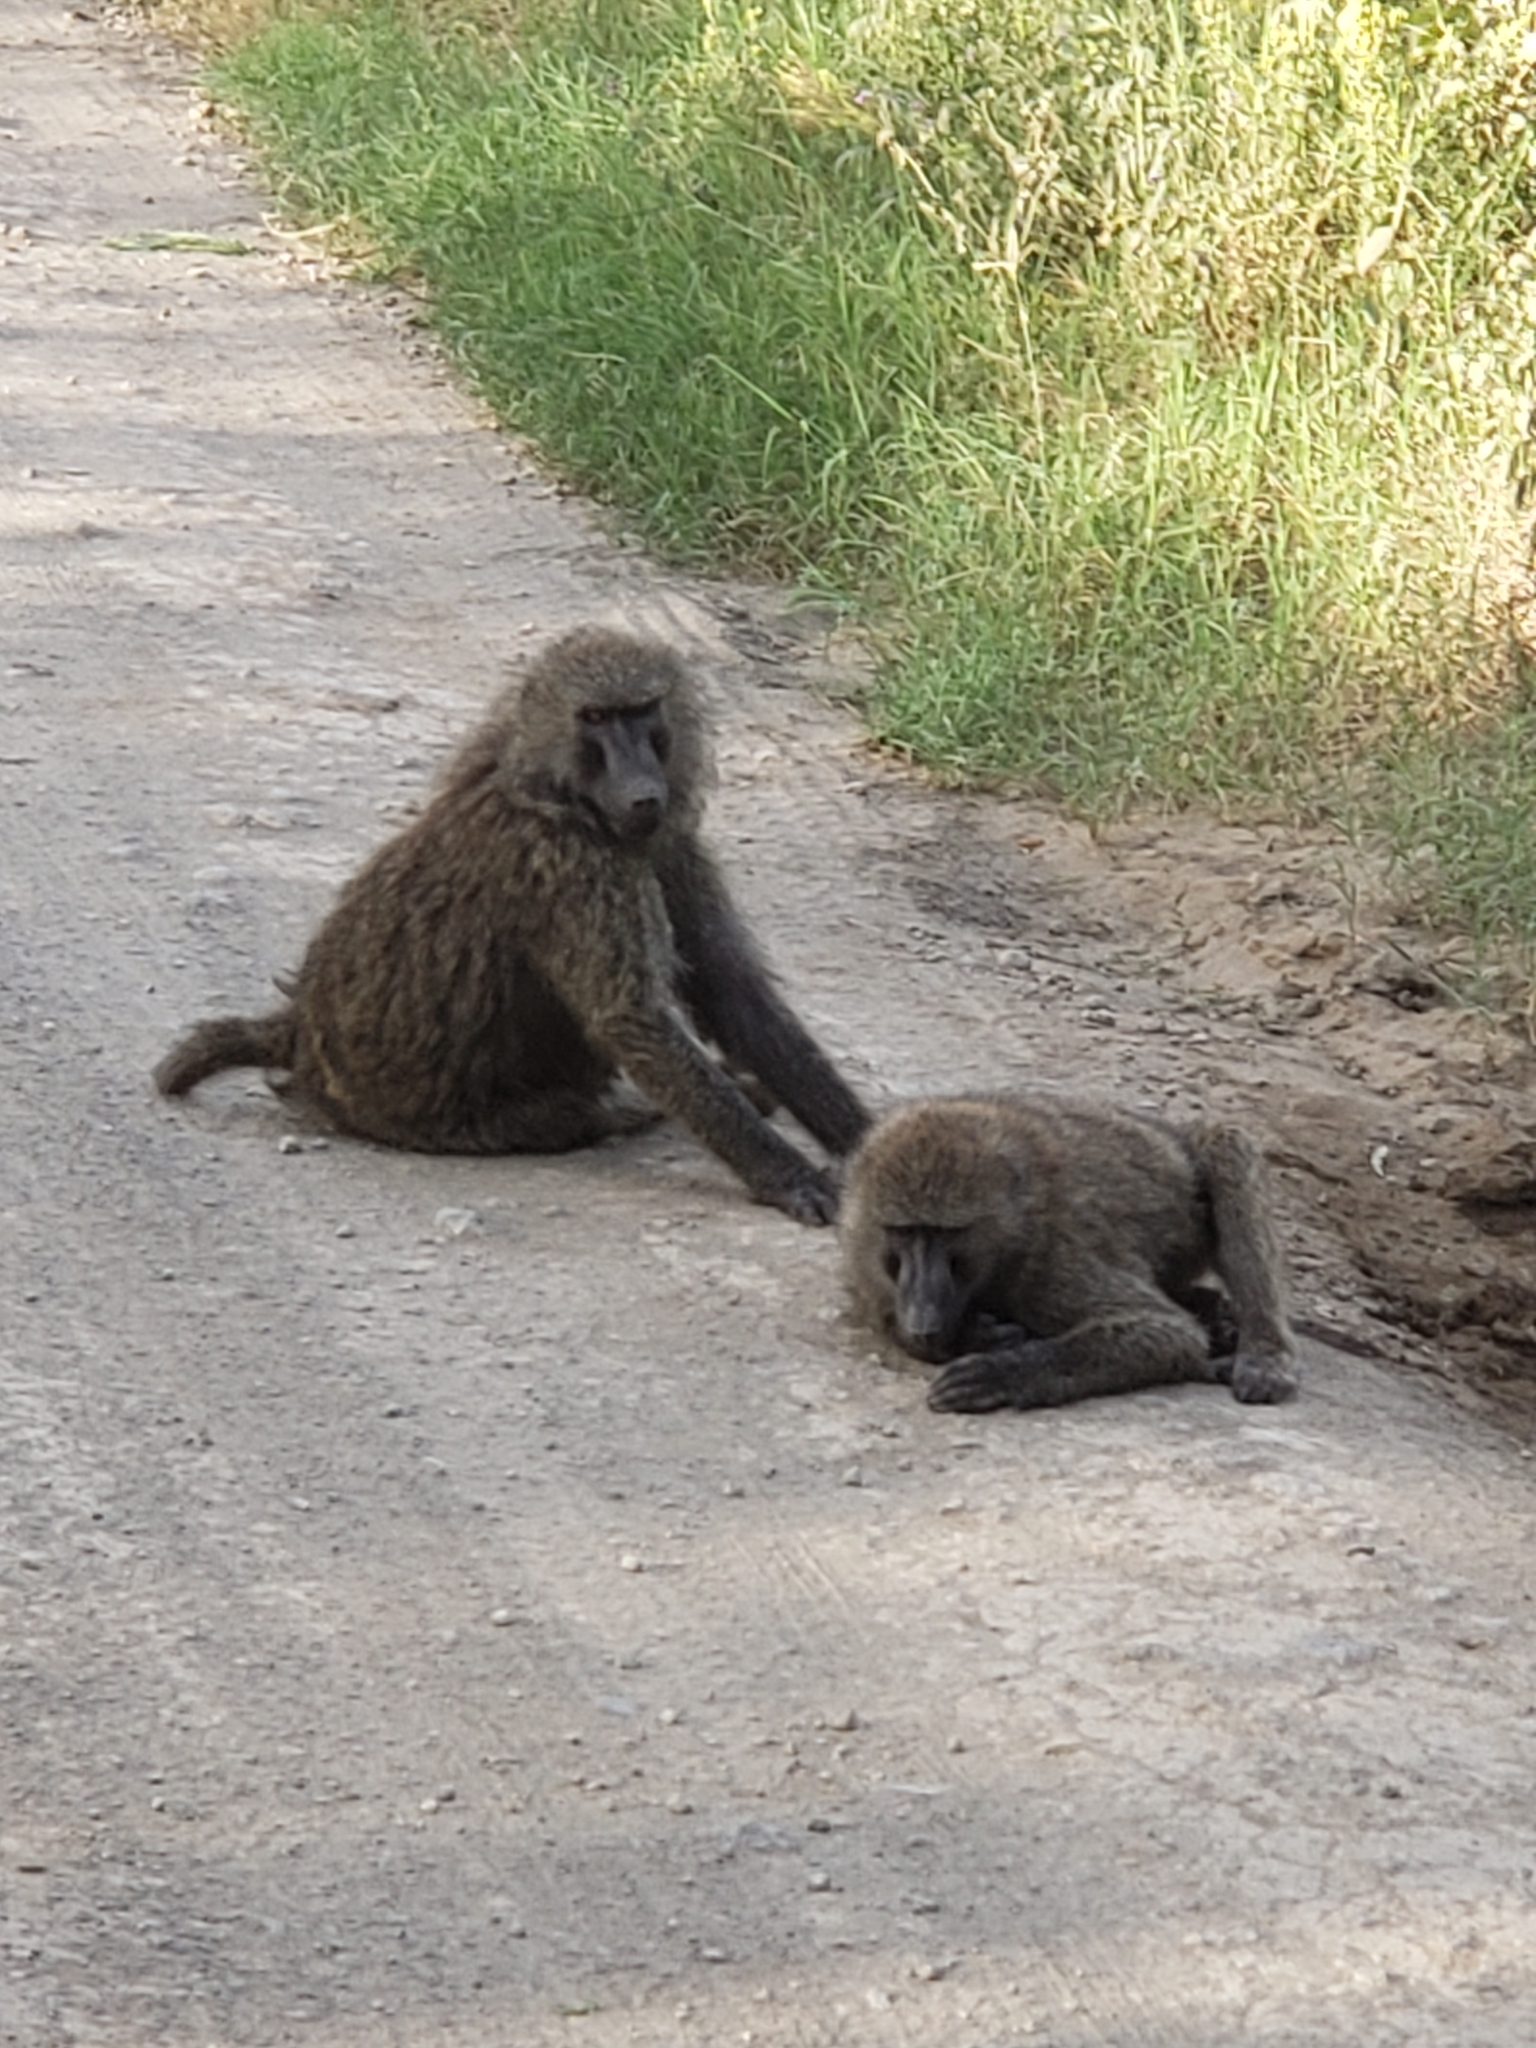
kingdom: Animalia
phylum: Chordata
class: Mammalia
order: Primates
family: Cercopithecidae
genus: Papio
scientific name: Papio anubis
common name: Olive baboon
